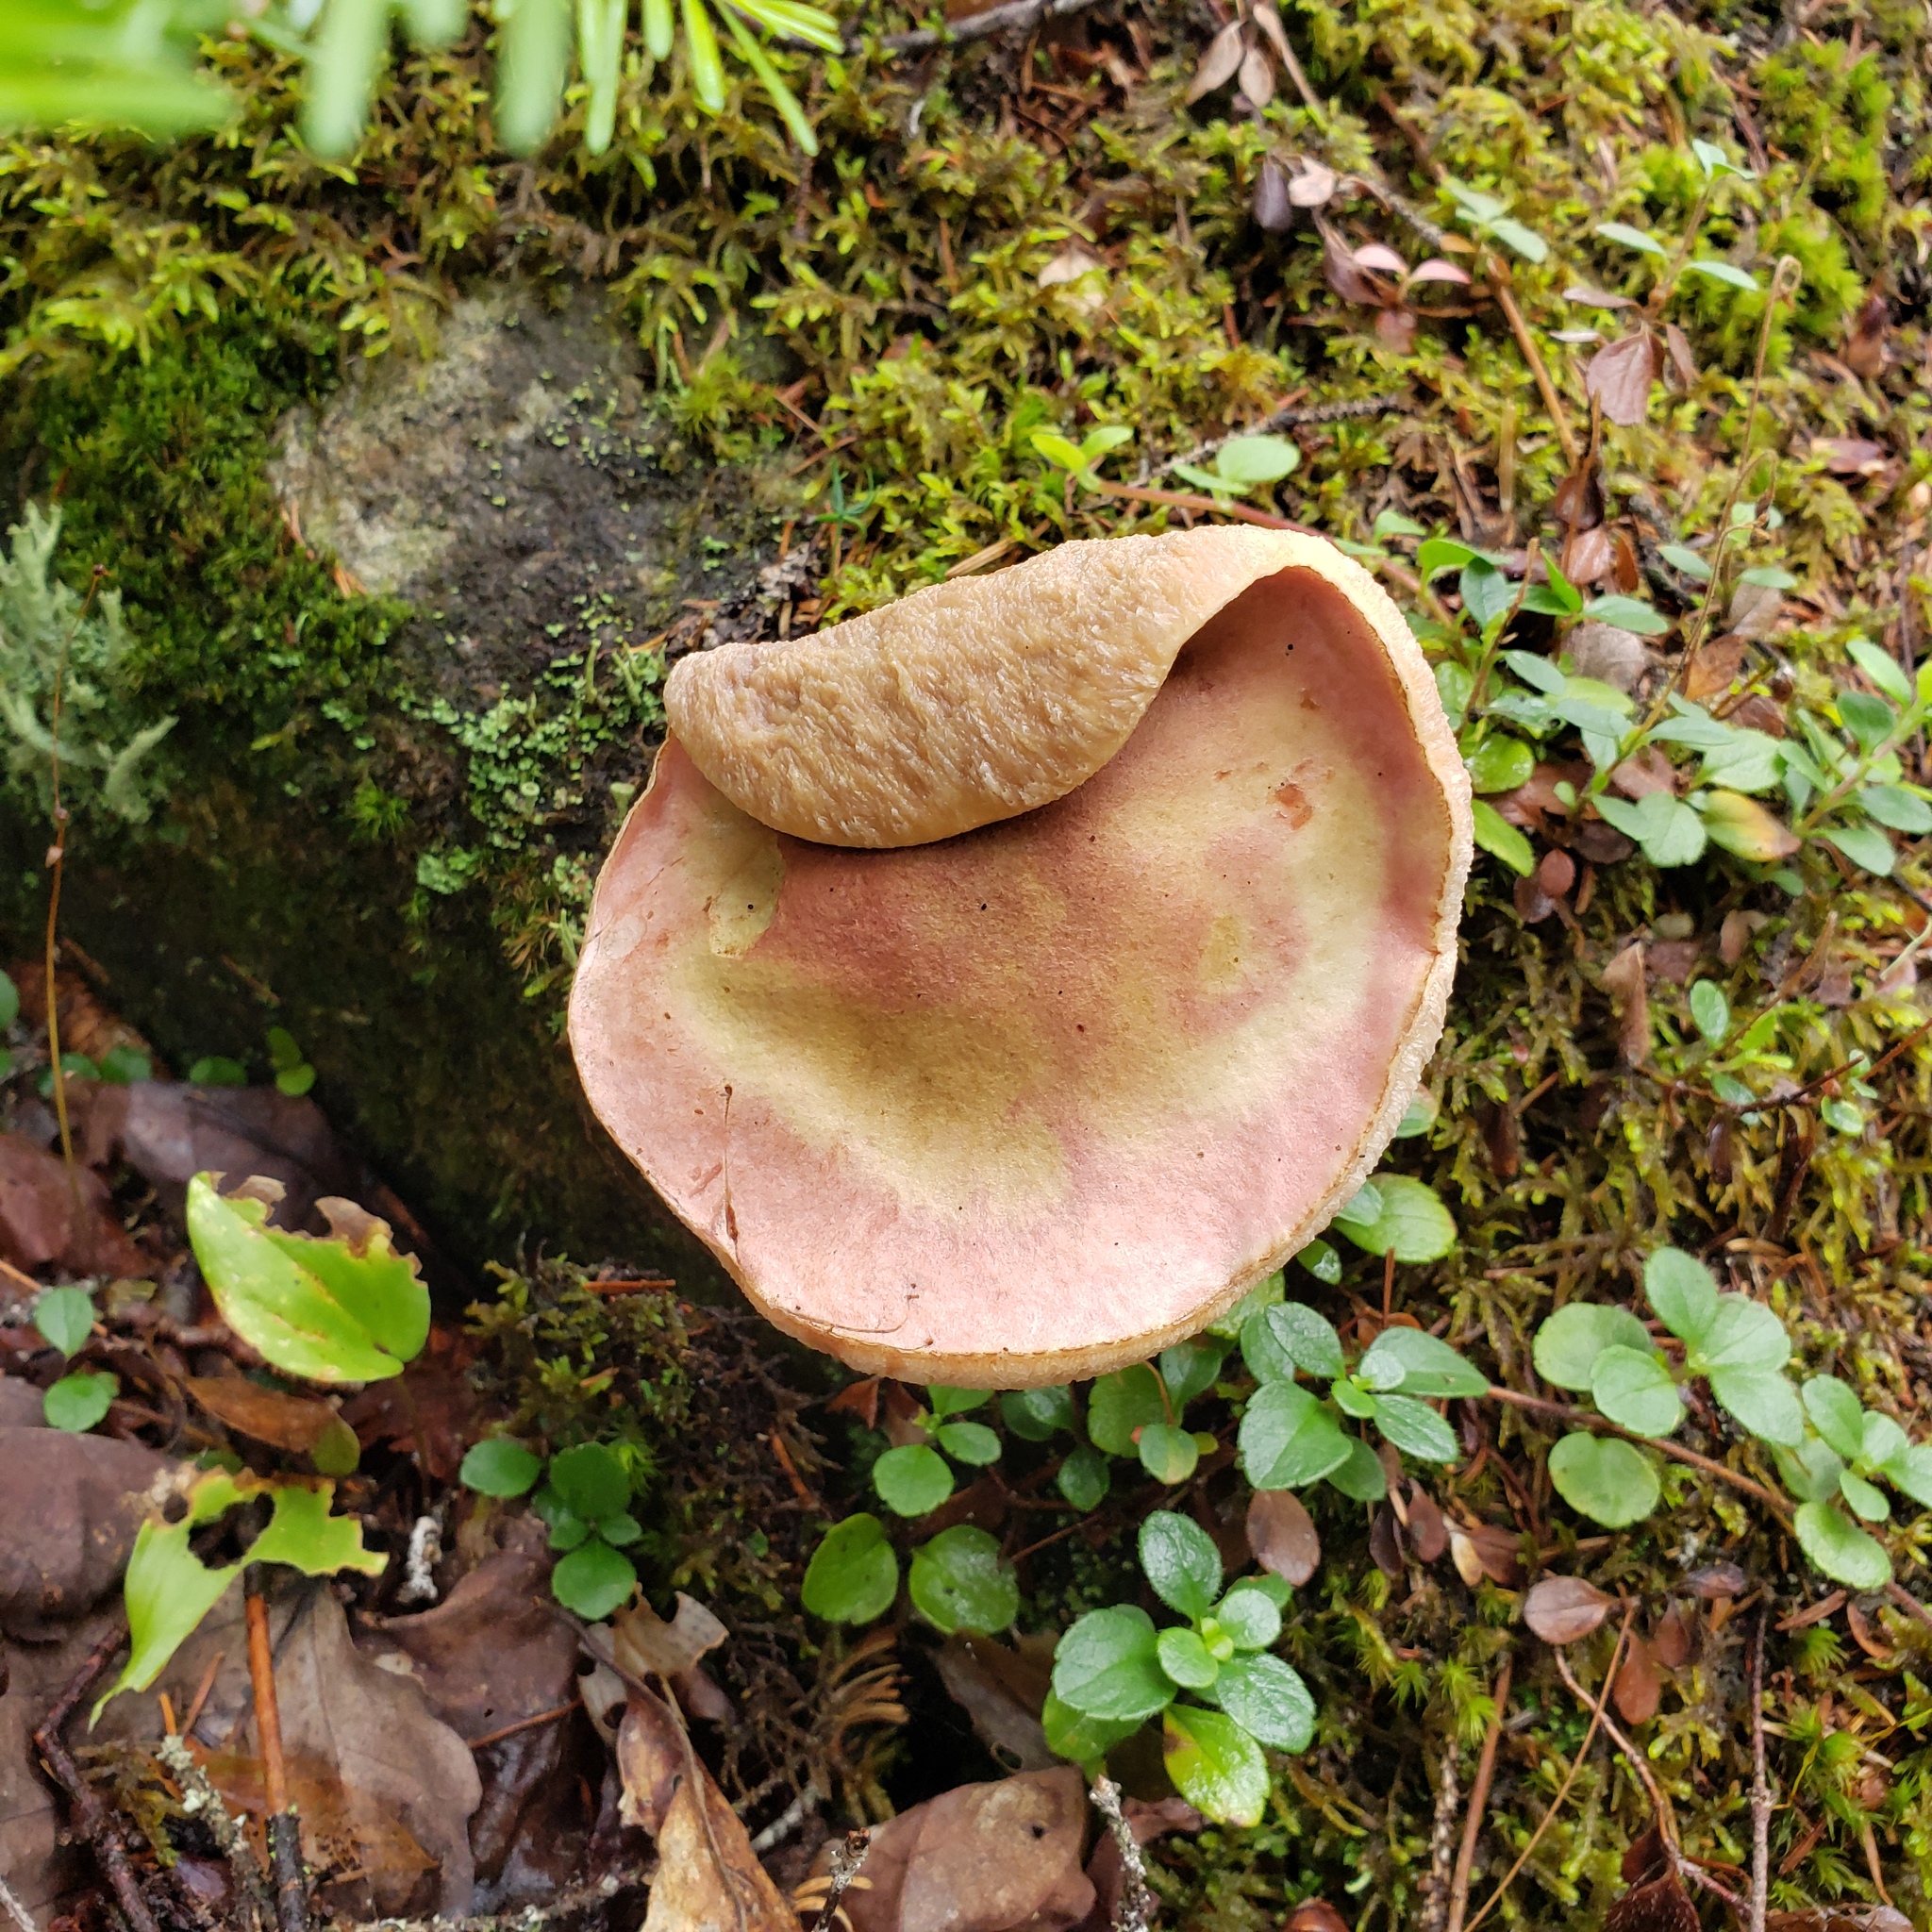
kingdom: Fungi
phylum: Basidiomycota
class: Agaricomycetes
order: Boletales
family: Boletaceae
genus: Harrya
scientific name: Harrya chromipes
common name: Chrome-footed bolete
